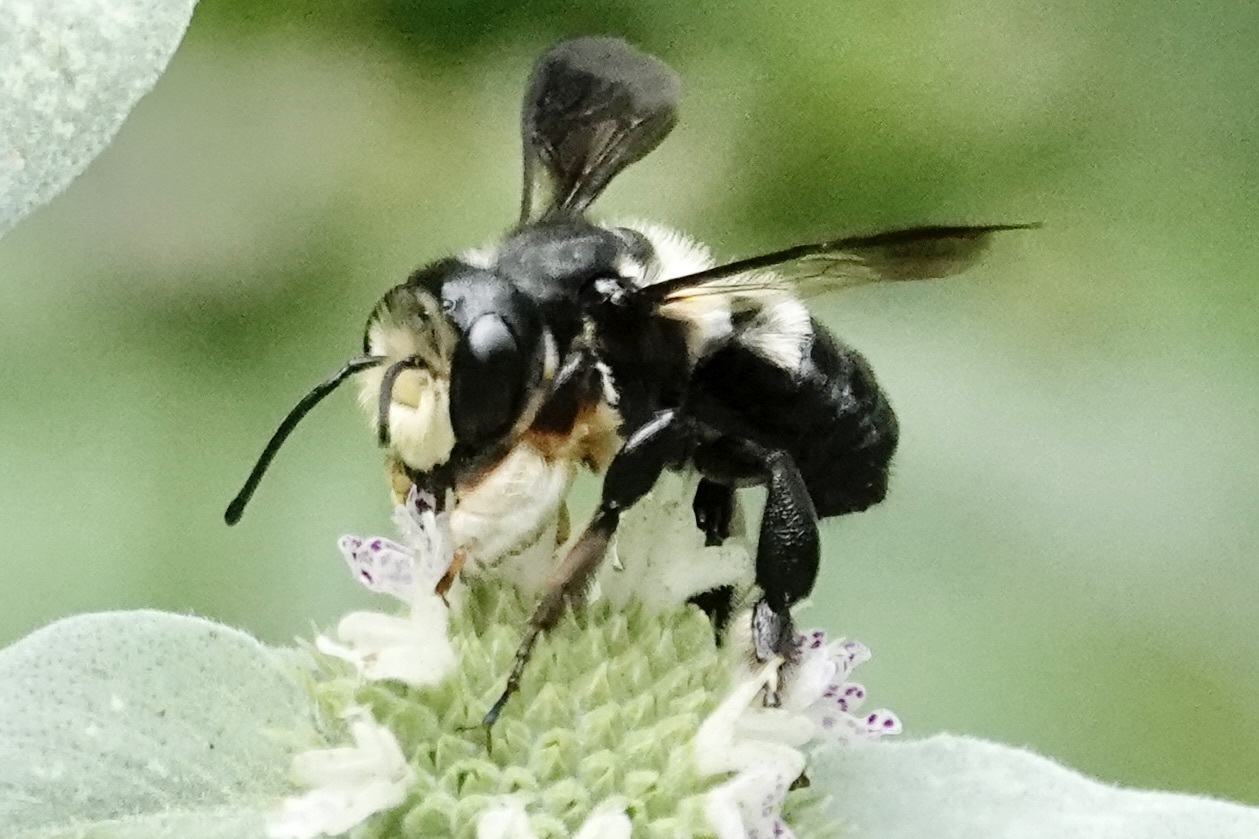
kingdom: Animalia
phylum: Arthropoda
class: Insecta
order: Hymenoptera
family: Megachilidae
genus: Megachile
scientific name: Megachile xylocopoides
